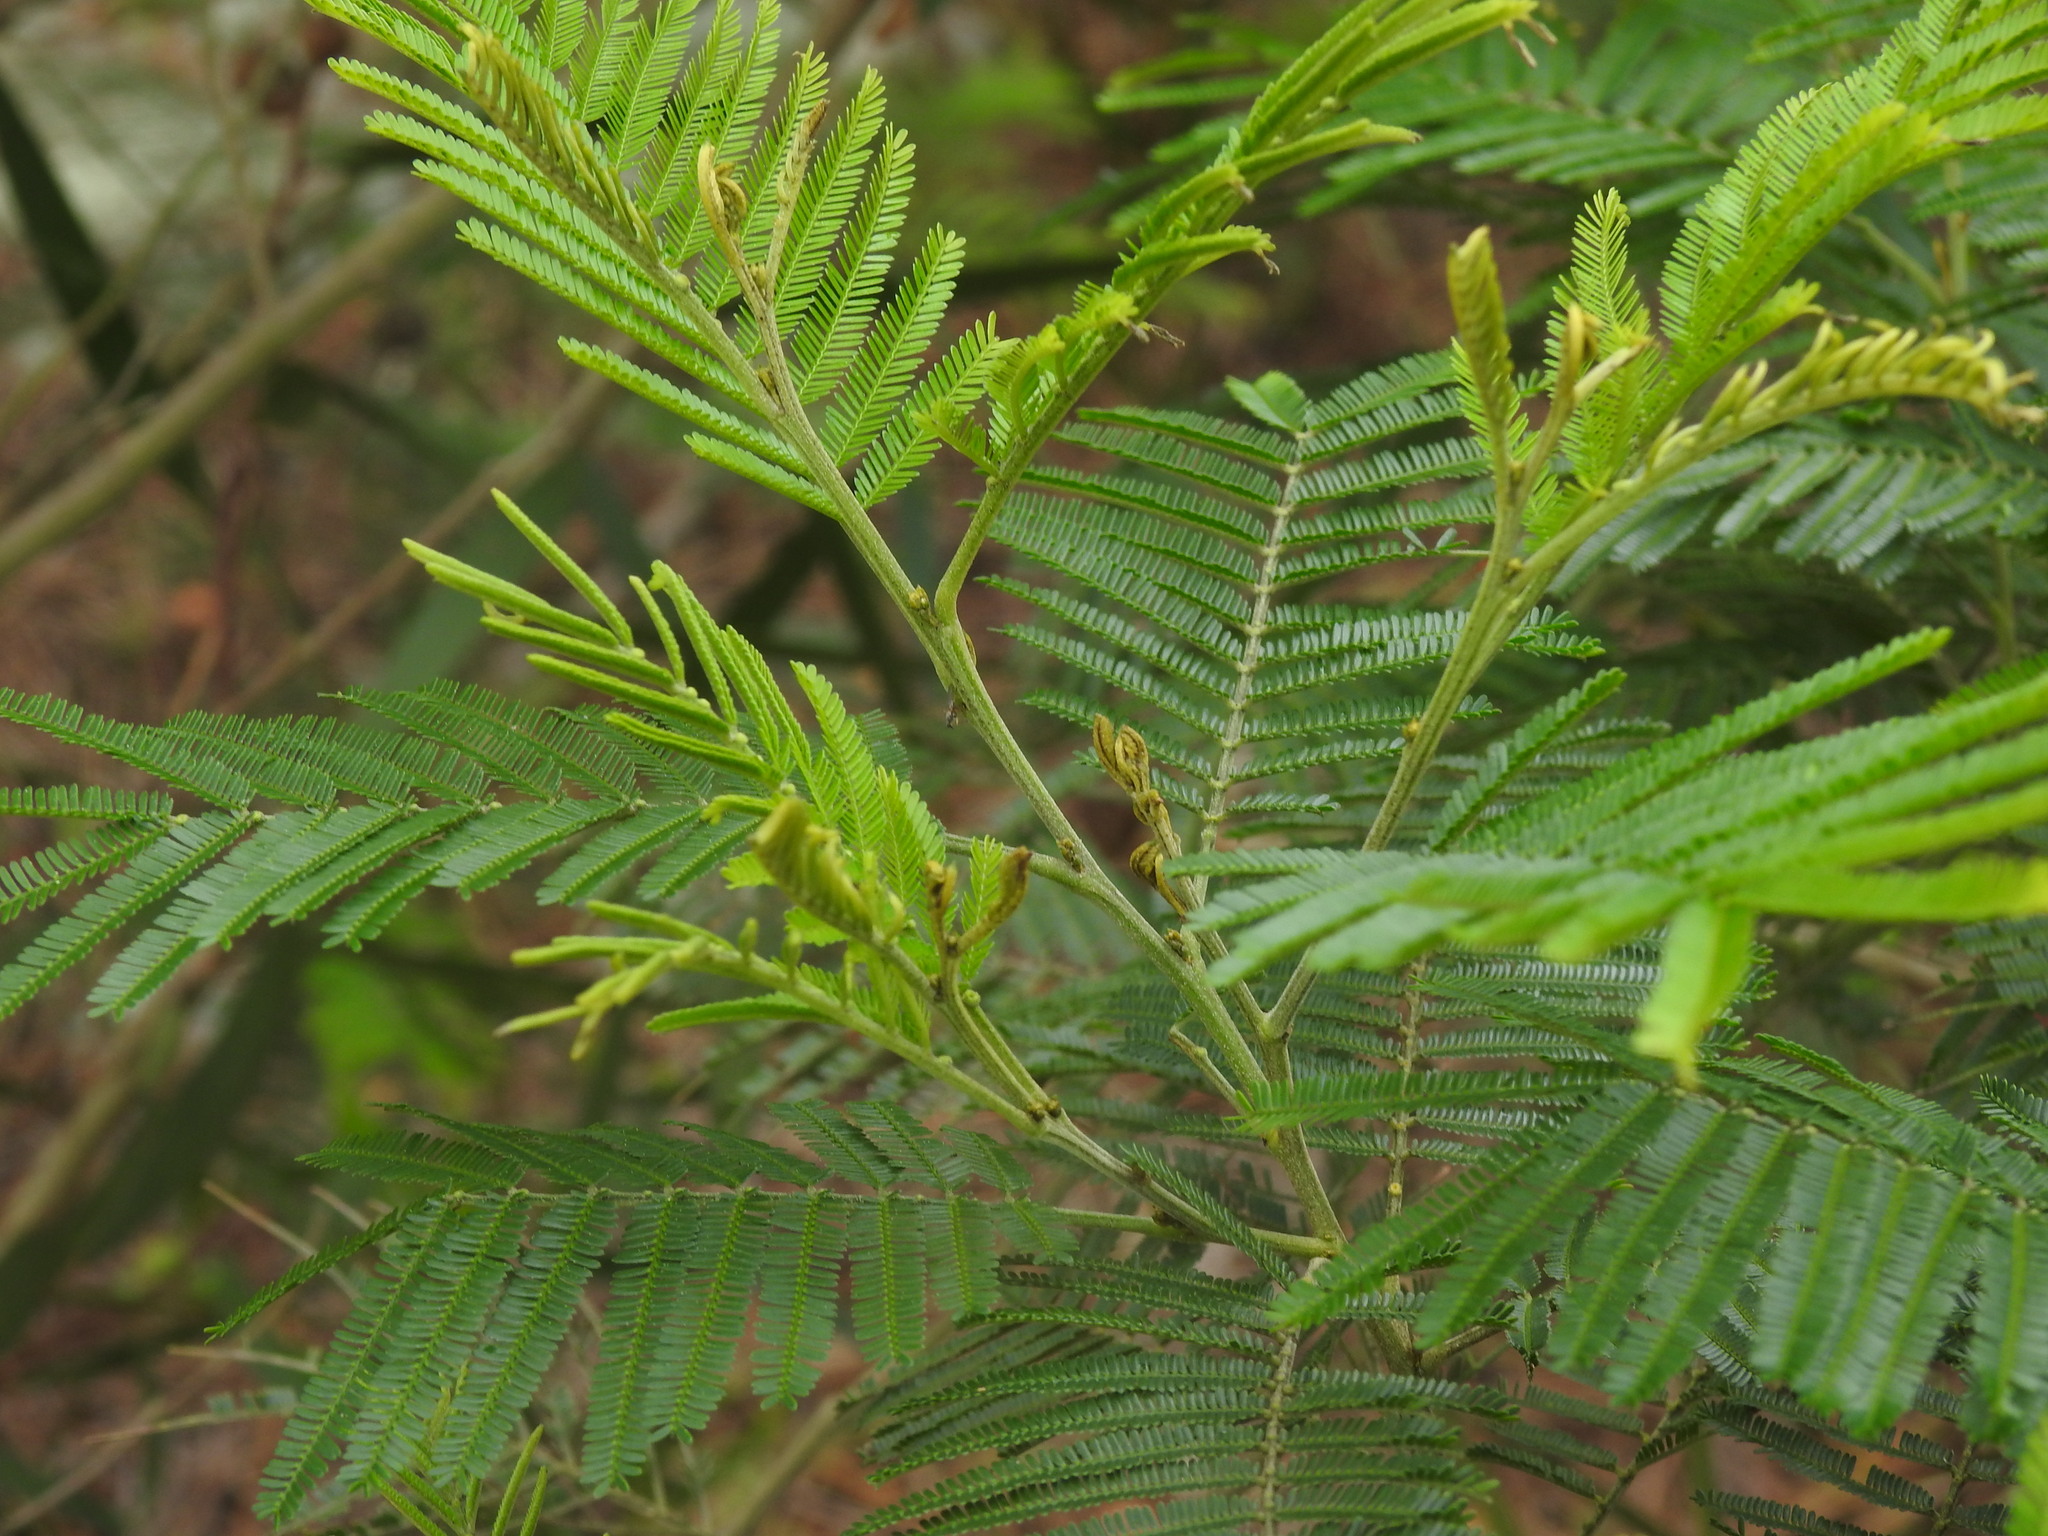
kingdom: Plantae
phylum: Tracheophyta
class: Magnoliopsida
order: Fabales
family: Fabaceae
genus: Acacia
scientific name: Acacia mearnsii
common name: Black wattle
